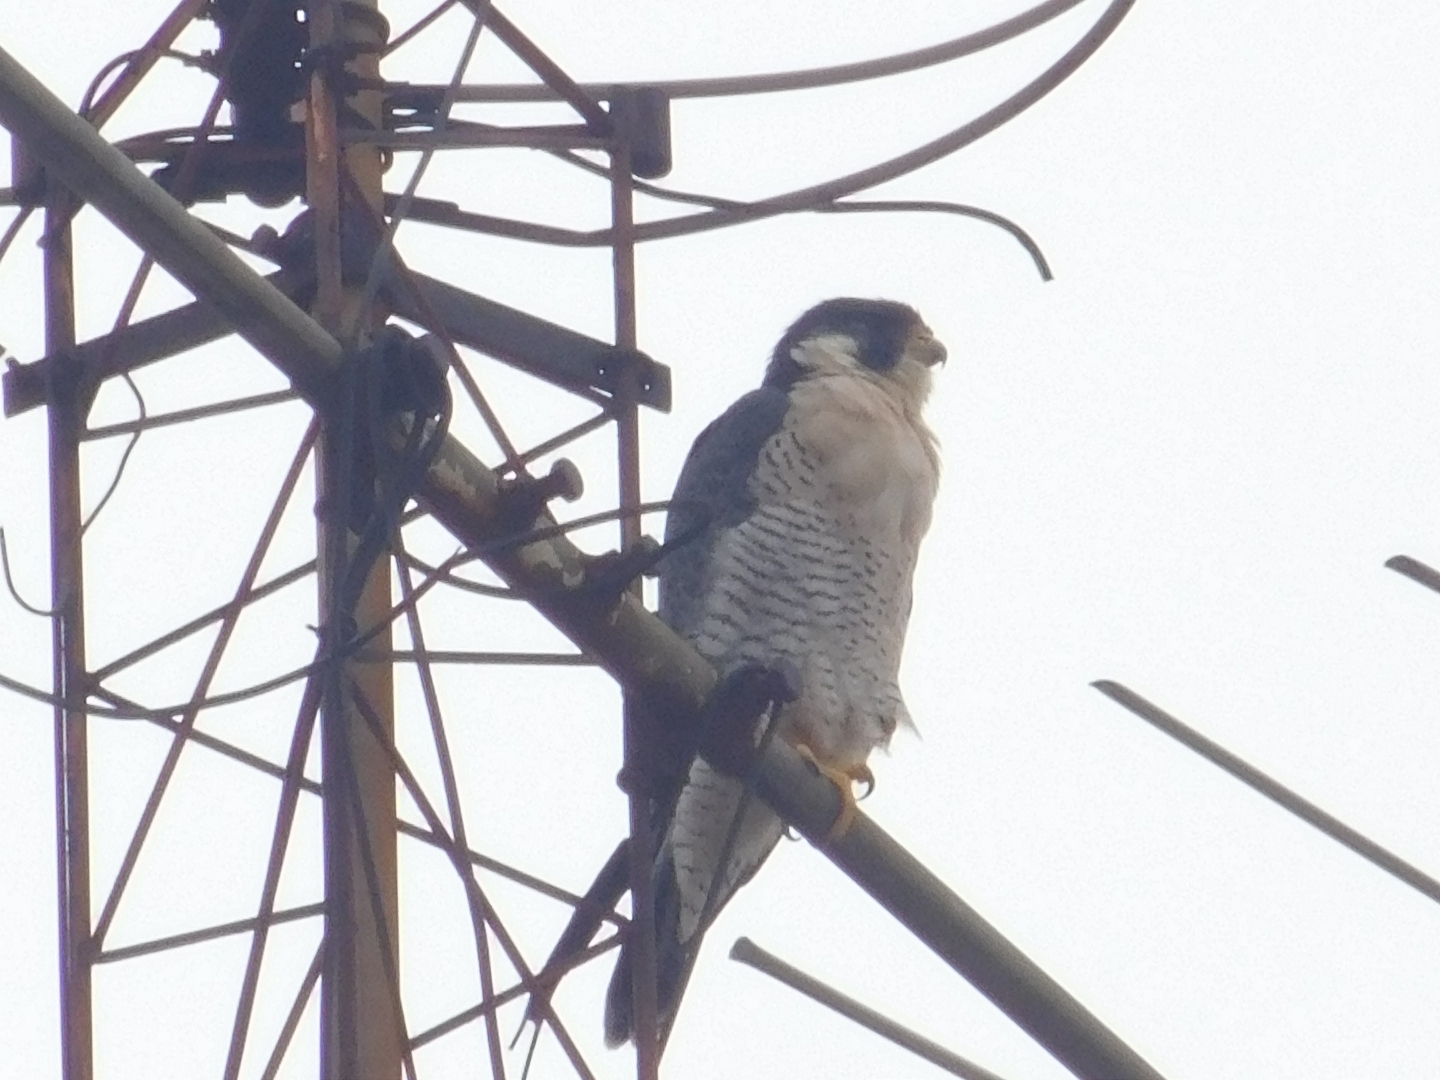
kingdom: Animalia
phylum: Chordata
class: Aves
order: Falconiformes
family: Falconidae
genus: Falco
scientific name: Falco peregrinus
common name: Peregrine falcon
